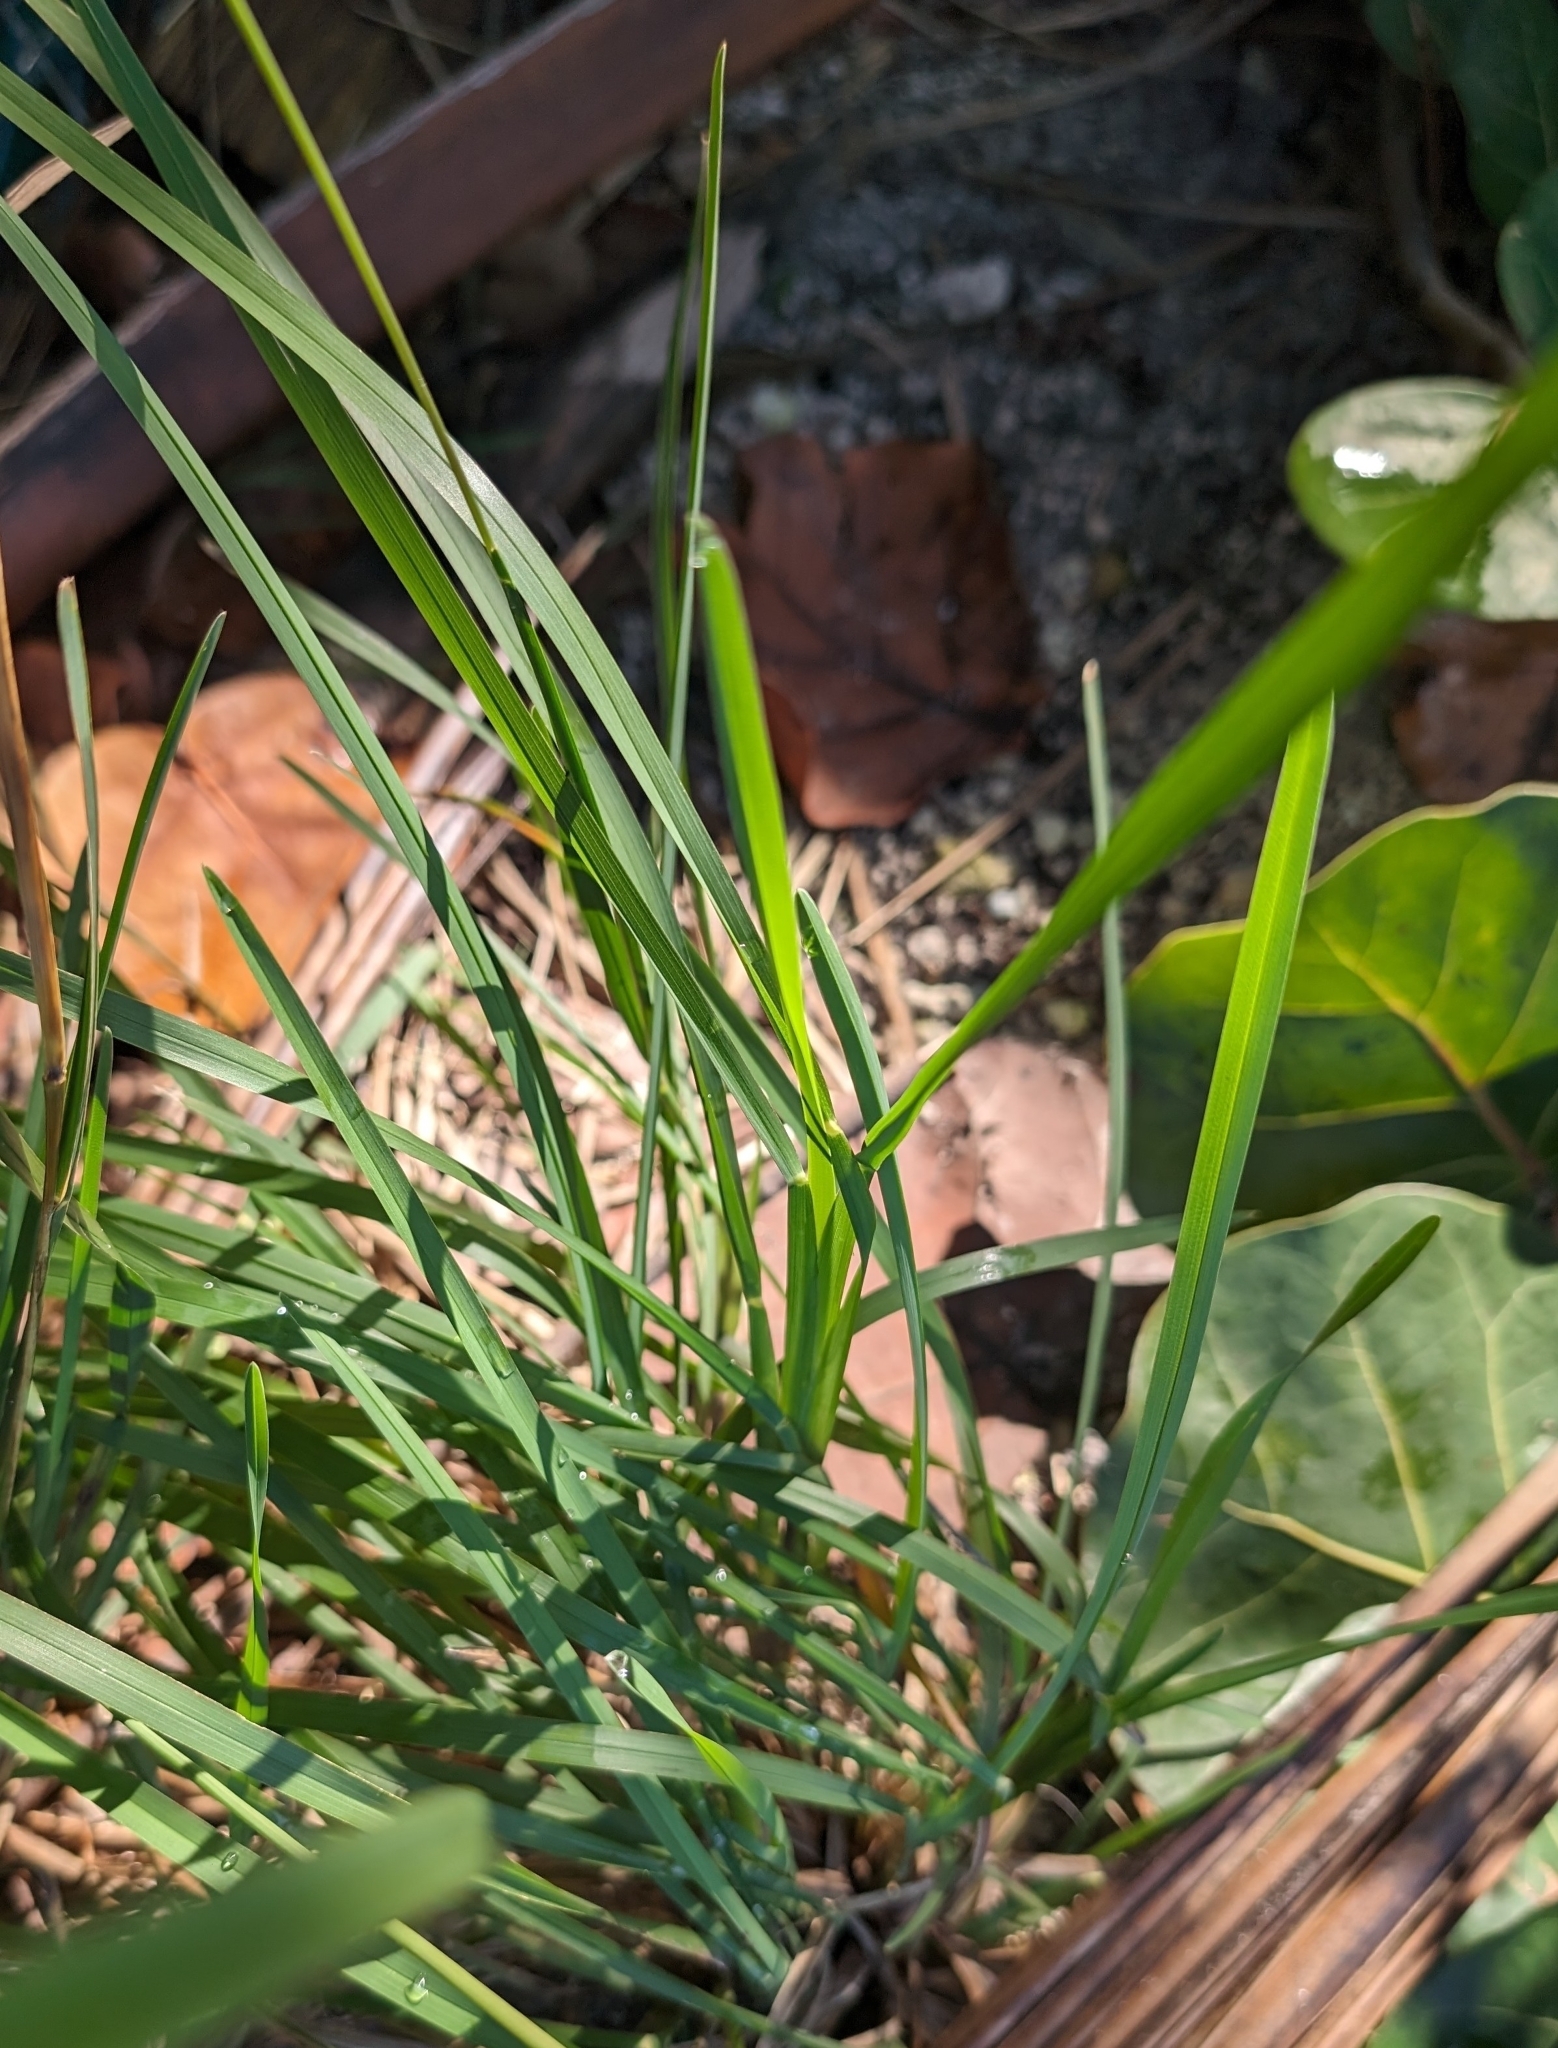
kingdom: Plantae
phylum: Tracheophyta
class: Liliopsida
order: Poales
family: Poaceae
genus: Eustachys
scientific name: Eustachys petraea
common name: Pinewoods fingergrass
